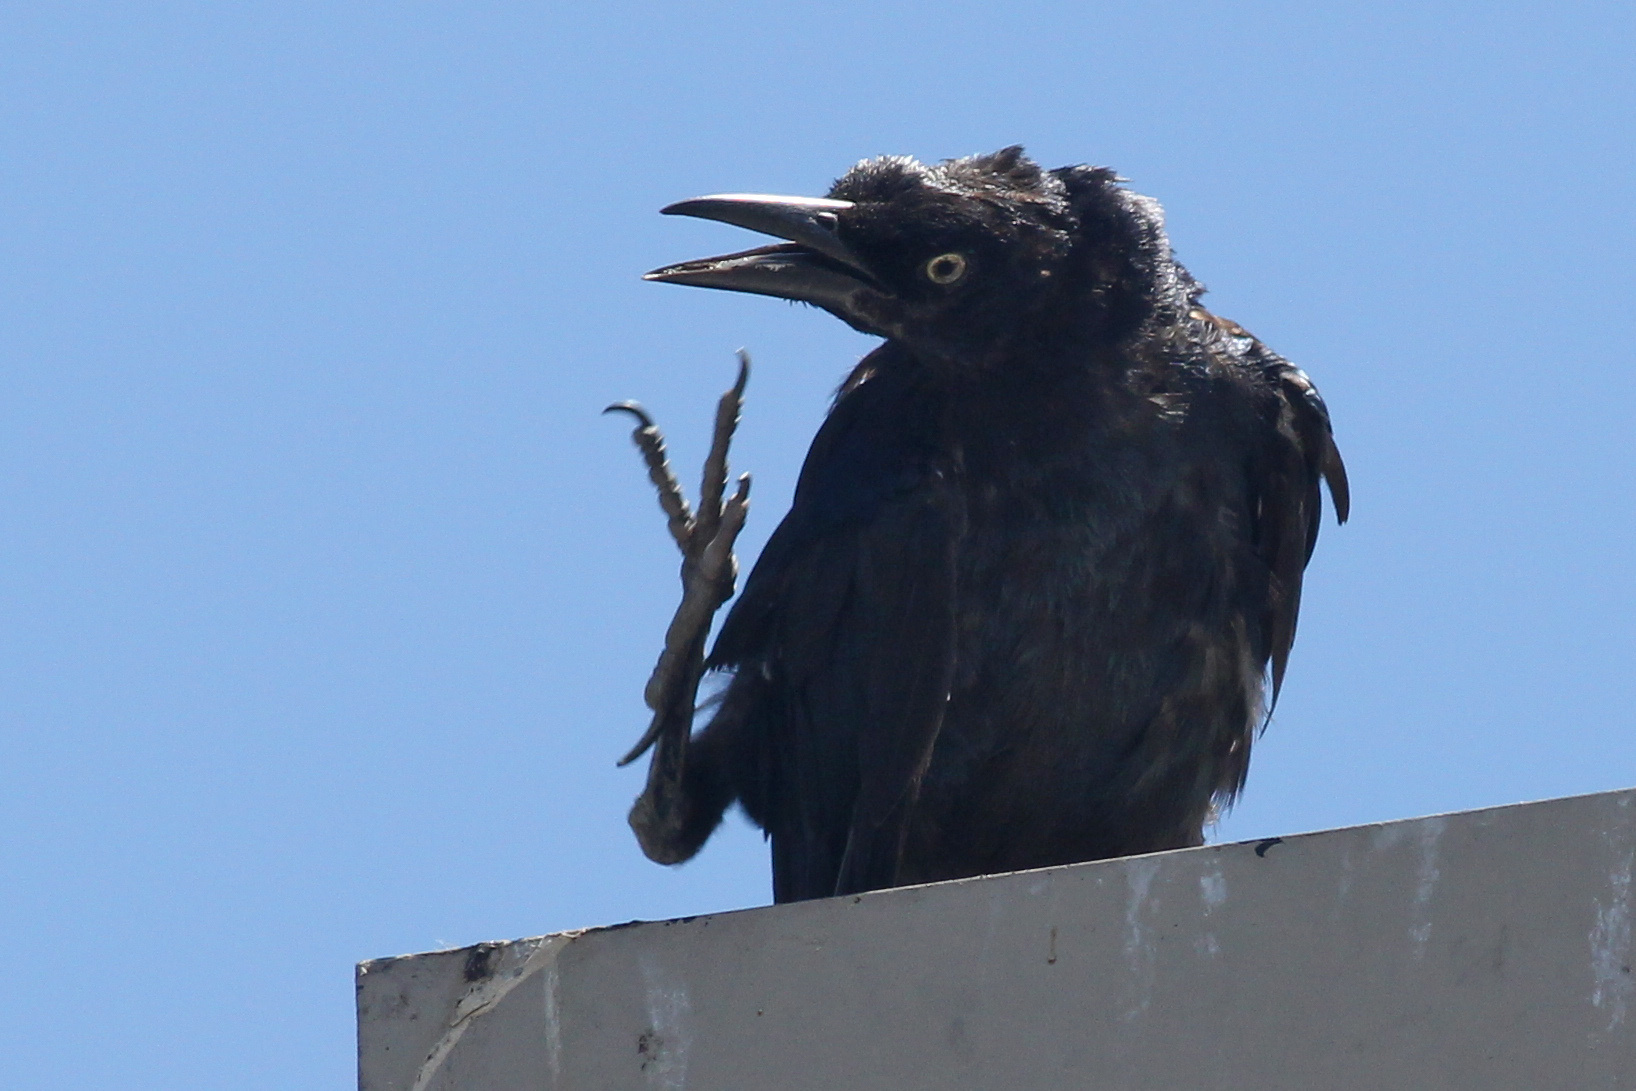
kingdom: Animalia
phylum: Chordata
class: Aves
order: Passeriformes
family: Icteridae
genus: Quiscalus
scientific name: Quiscalus mexicanus
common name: Great-tailed grackle
